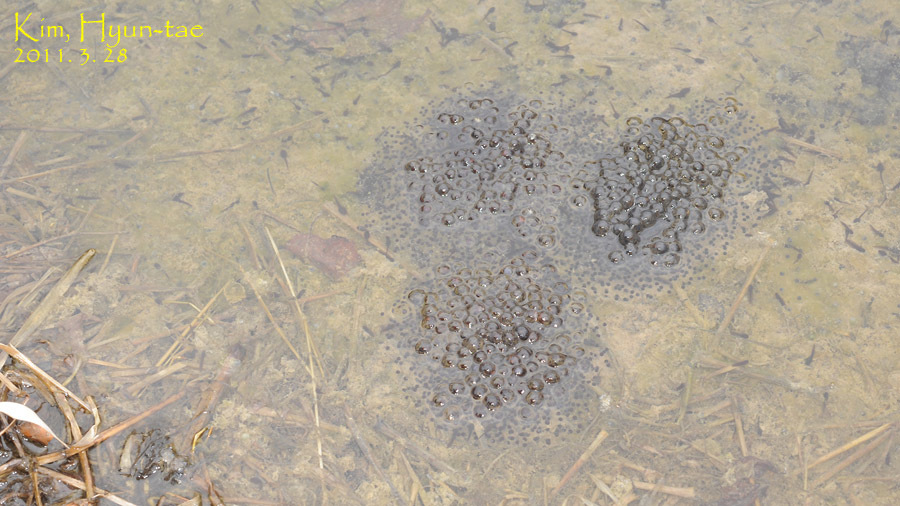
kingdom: Animalia
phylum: Chordata
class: Amphibia
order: Anura
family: Ranidae
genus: Rana
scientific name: Rana uenoi
